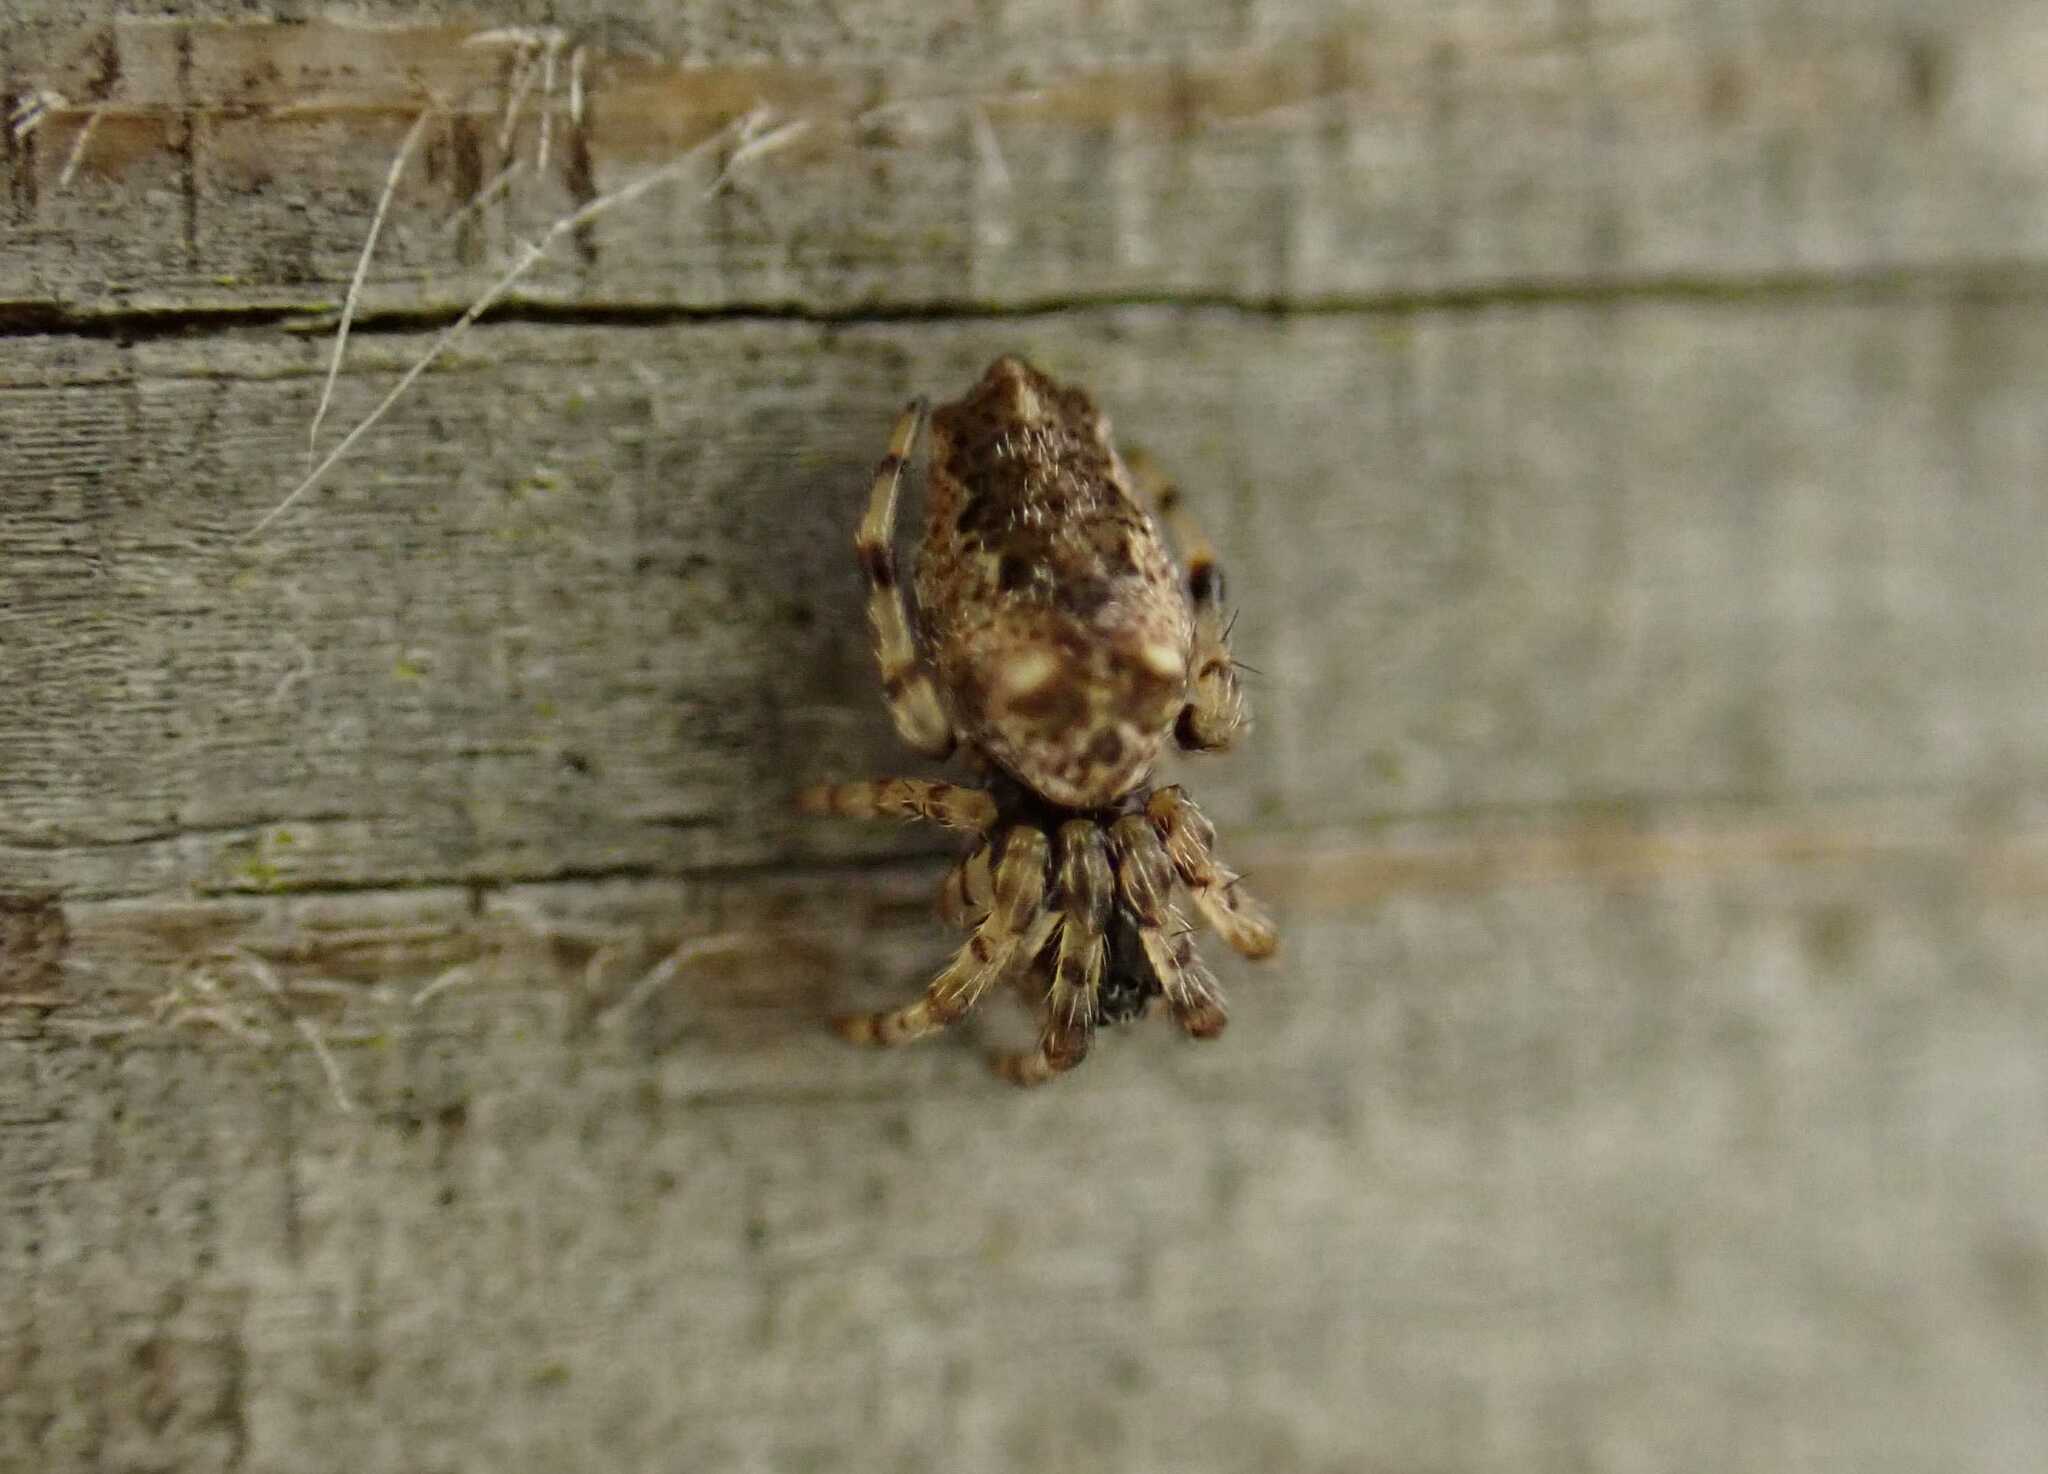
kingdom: Animalia
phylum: Arthropoda
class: Arachnida
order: Araneae
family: Araneidae
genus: Cyclosa
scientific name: Cyclosa oculata
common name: Trashline orbweaver
